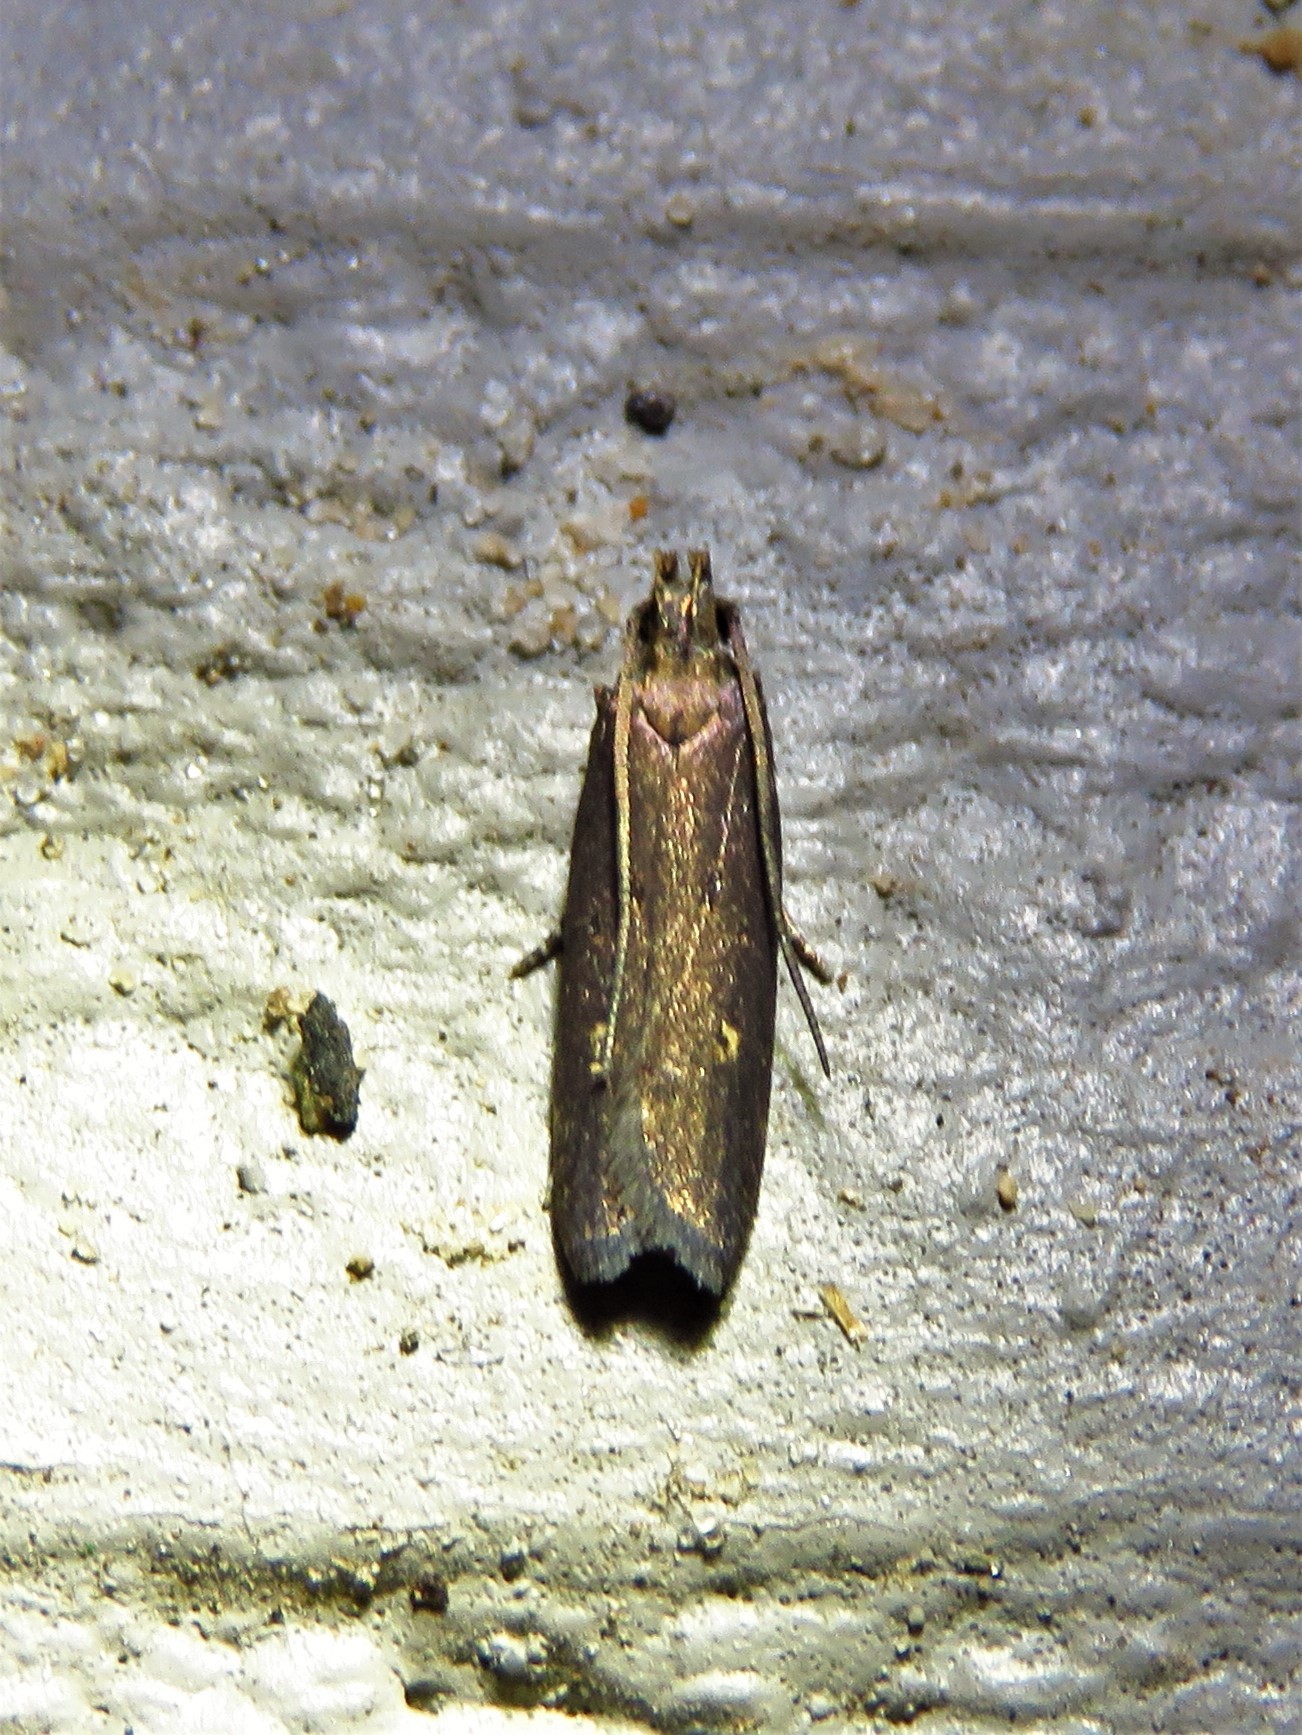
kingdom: Animalia
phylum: Arthropoda
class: Insecta
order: Lepidoptera
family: Gelechiidae
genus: Chionodes
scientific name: Chionodes discoocellella
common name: Eye-ringed chionodes moth
